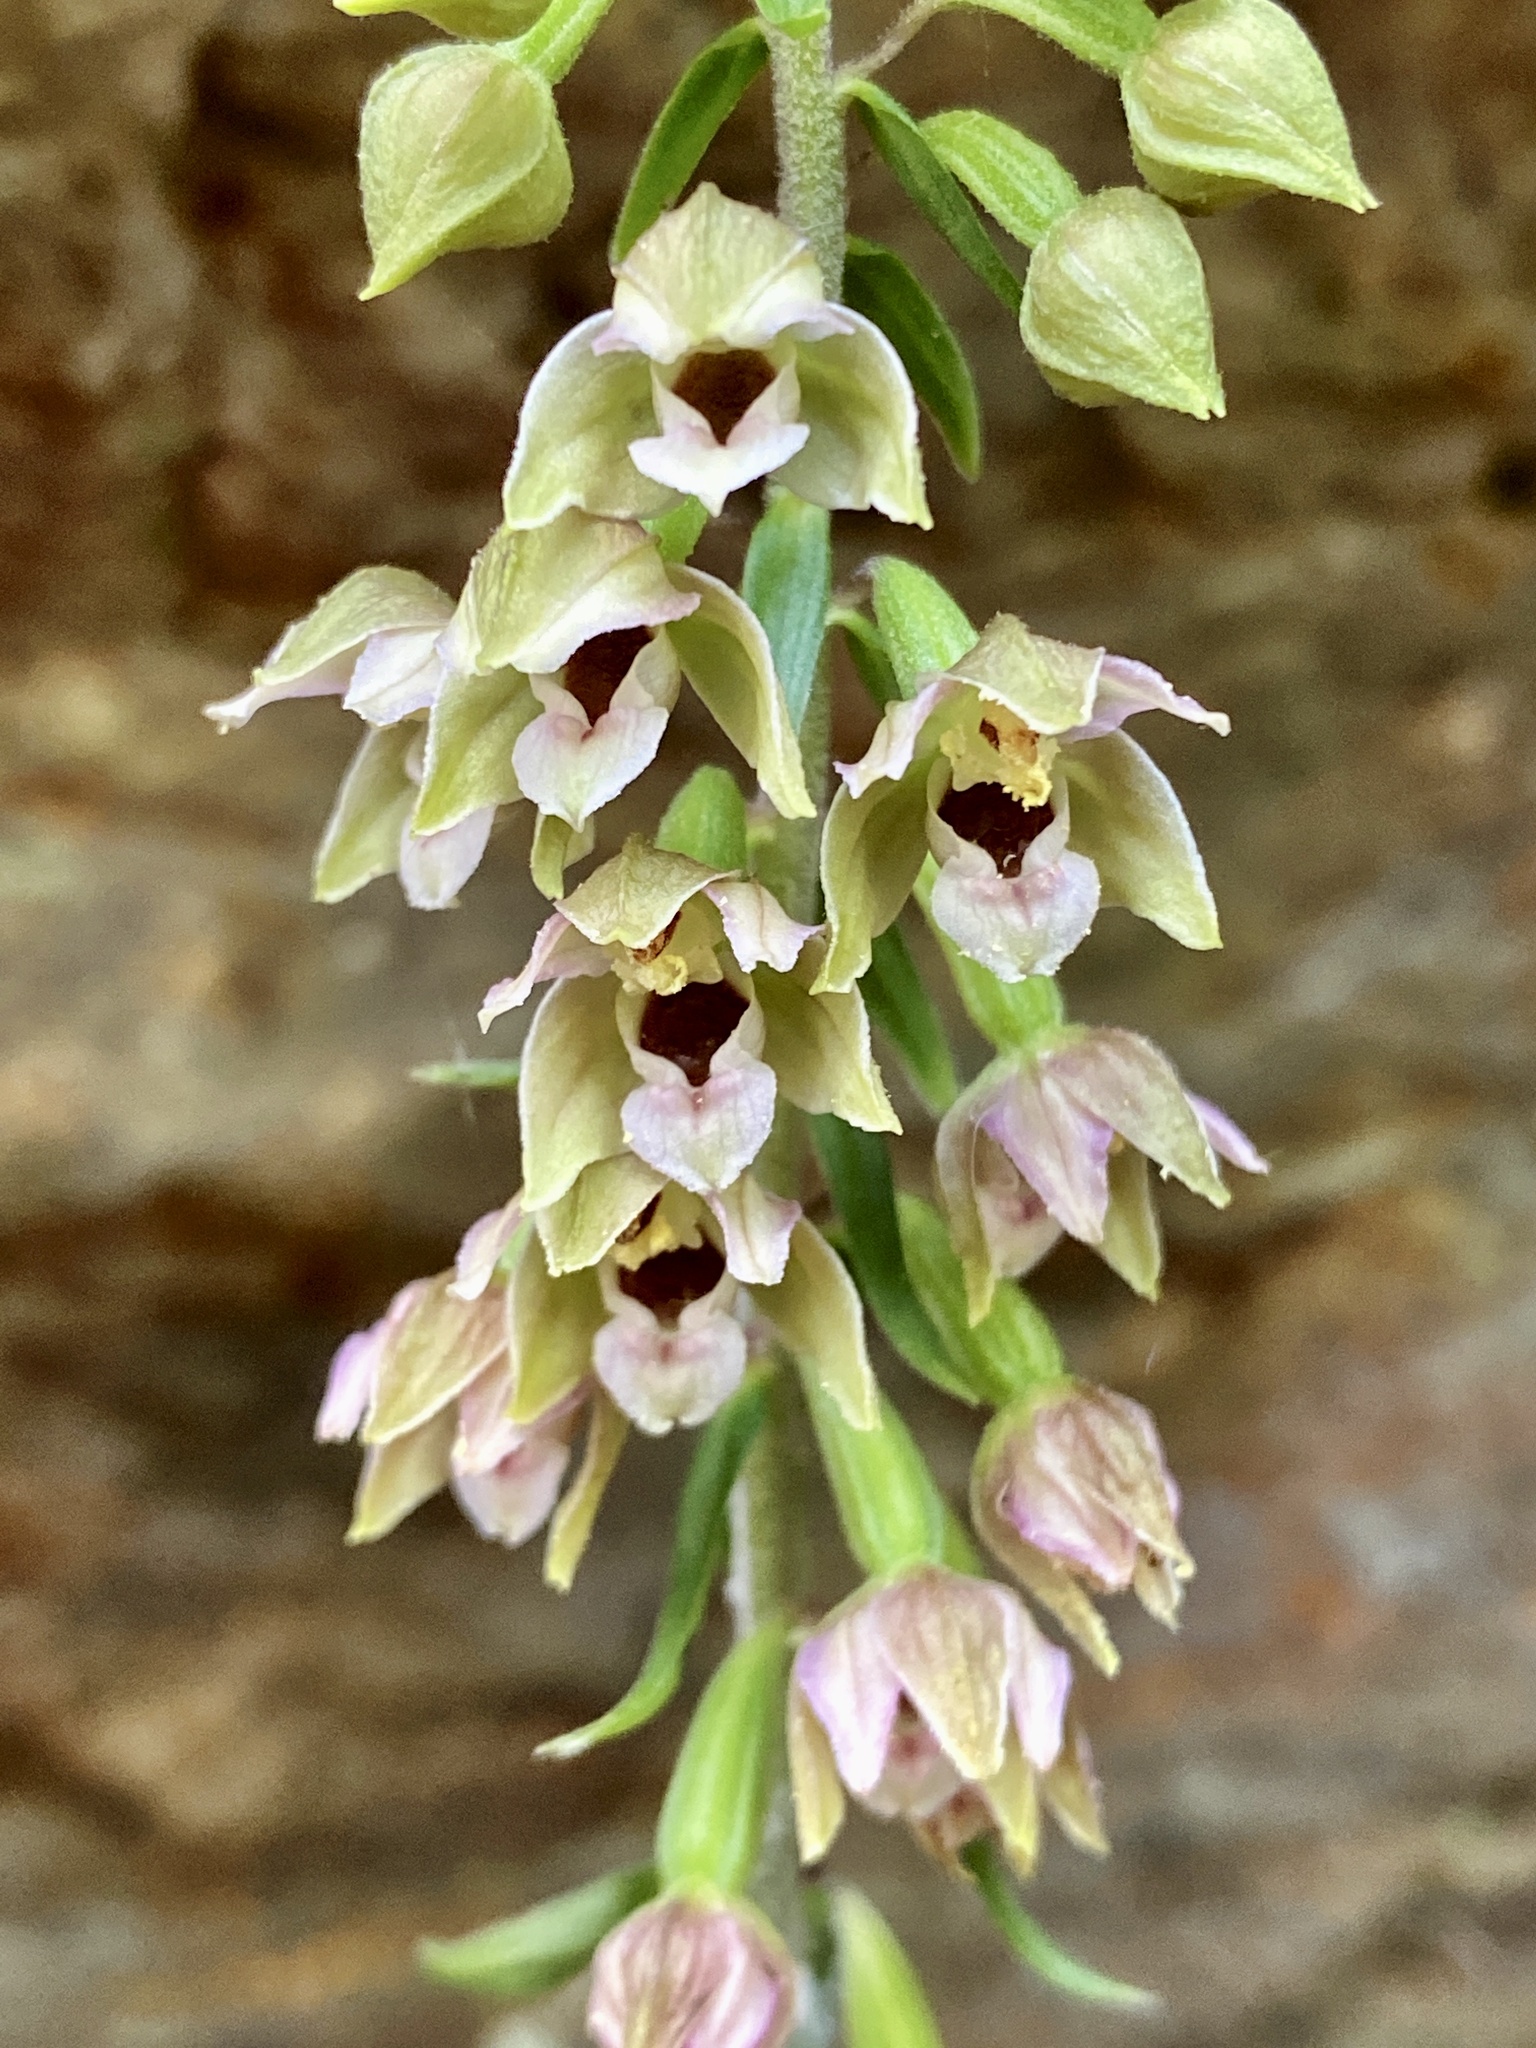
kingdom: Plantae
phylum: Tracheophyta
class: Liliopsida
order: Asparagales
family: Orchidaceae
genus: Epipactis
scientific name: Epipactis helleborine
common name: Broad-leaved helleborine
